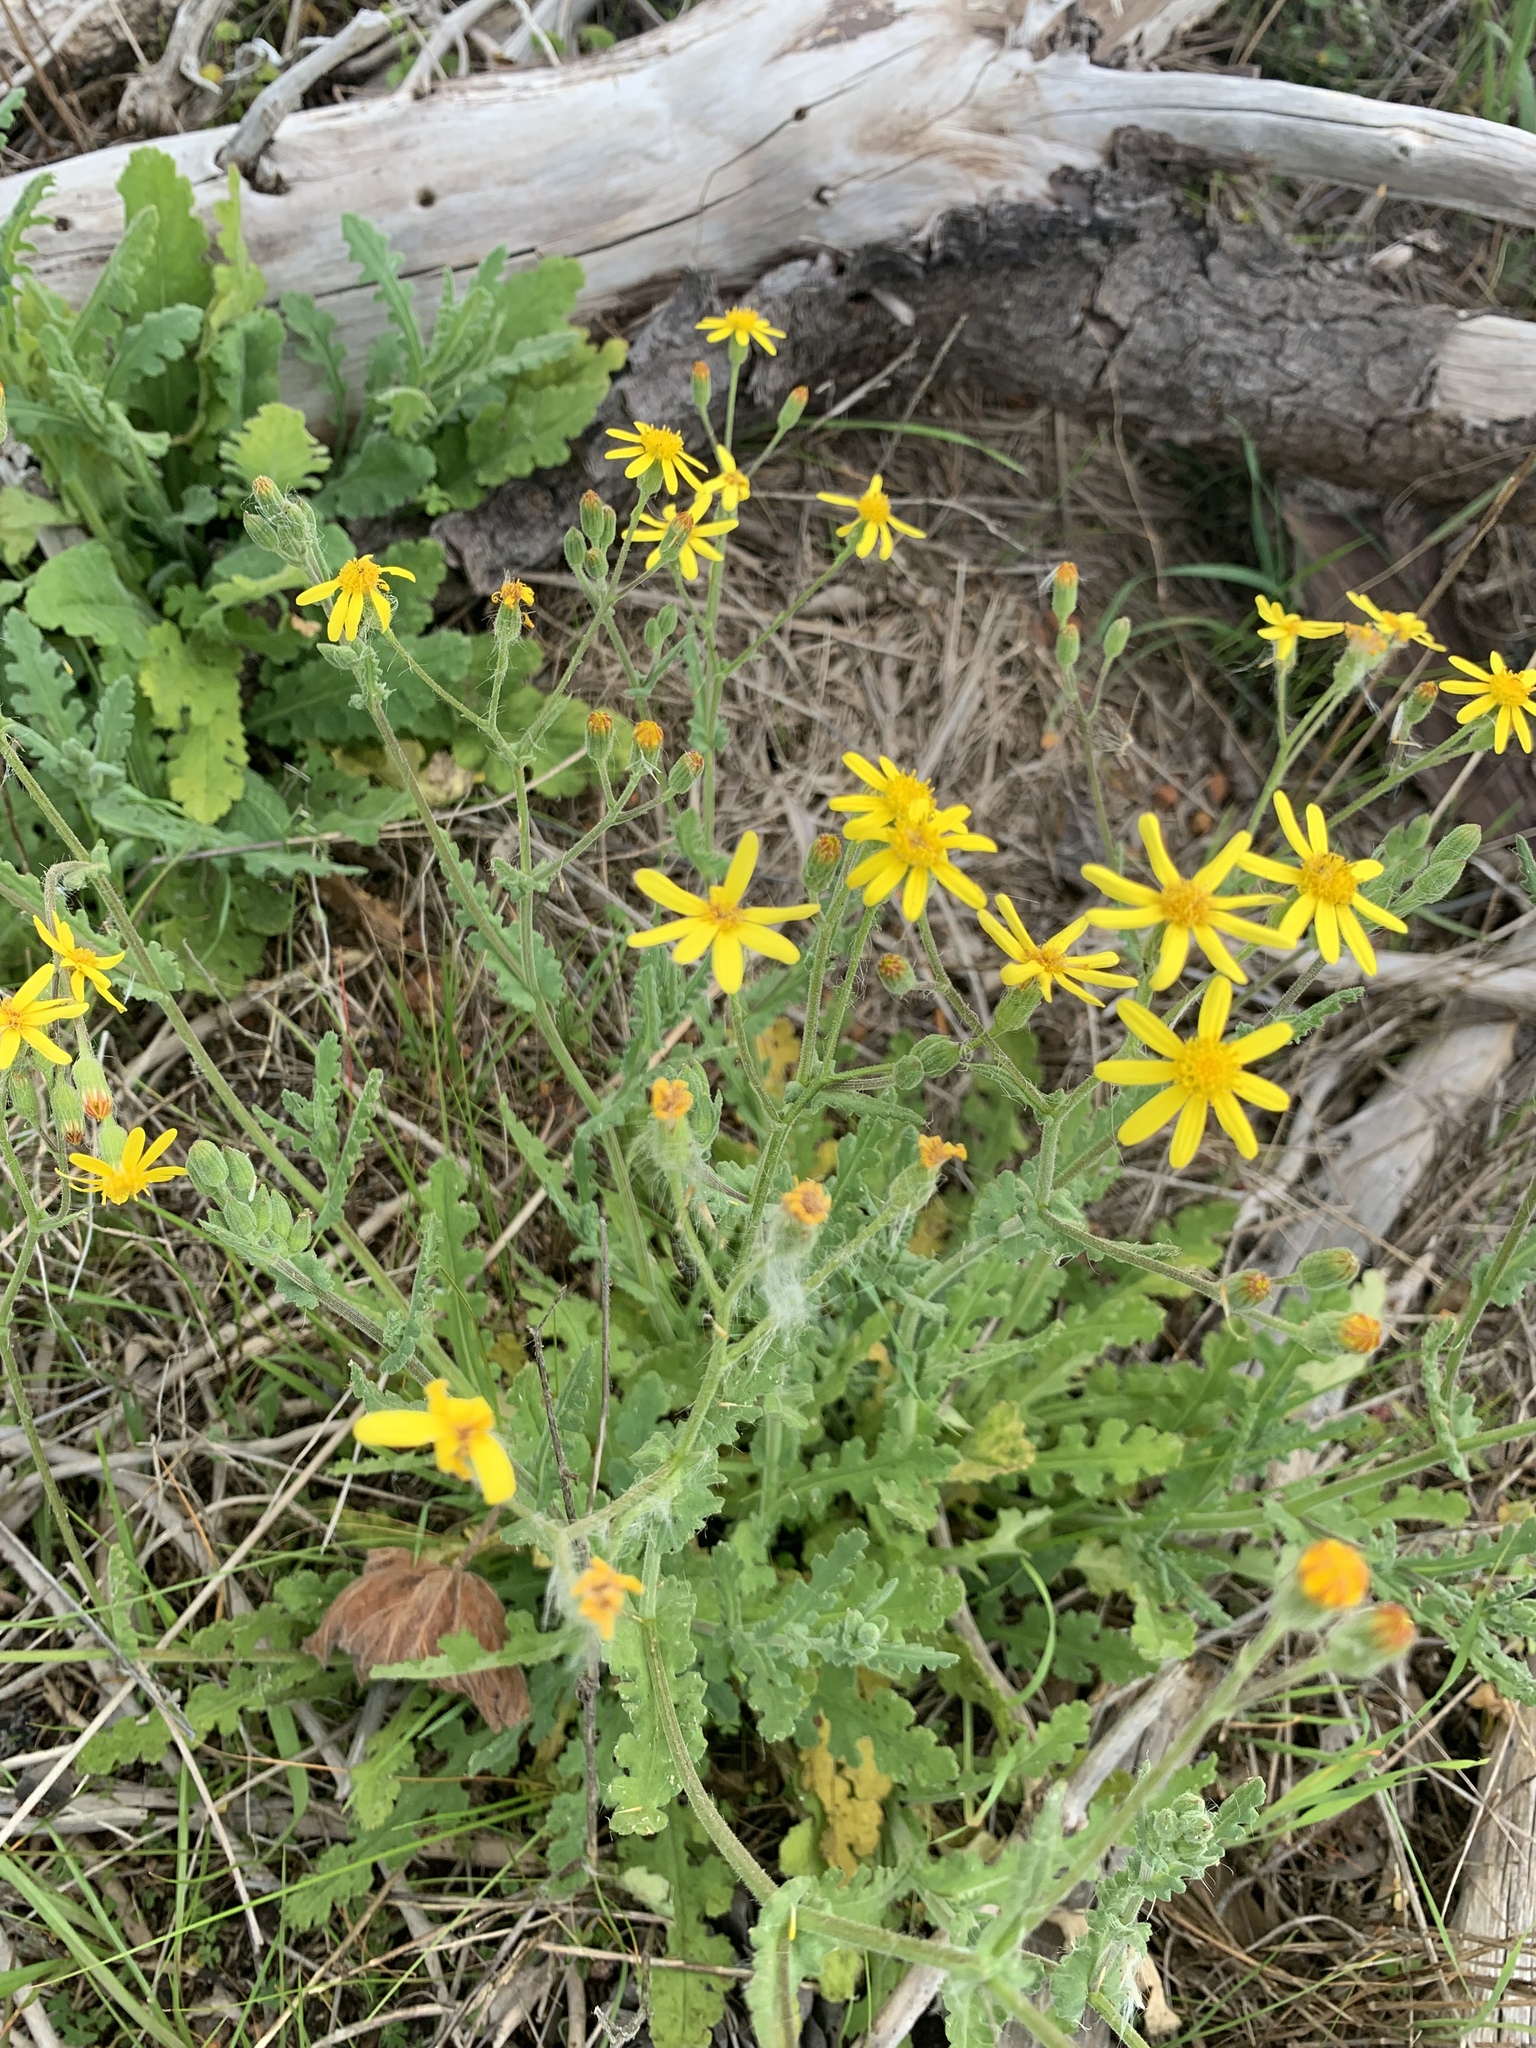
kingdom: Plantae
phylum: Tracheophyta
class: Magnoliopsida
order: Asterales
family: Asteraceae
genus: Senecio
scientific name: Senecio hastatus
